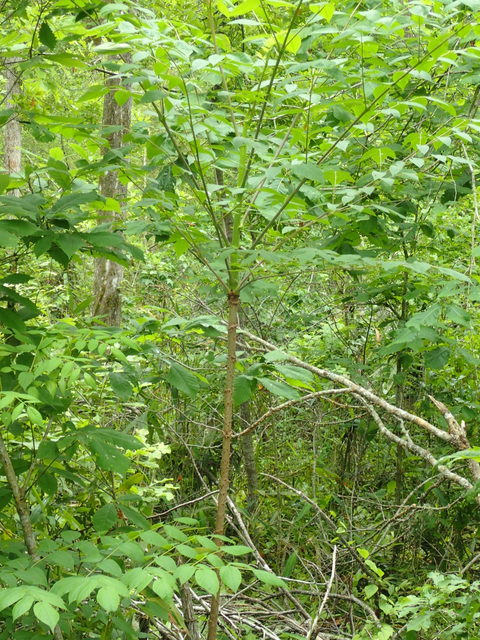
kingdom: Plantae
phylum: Tracheophyta
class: Magnoliopsida
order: Apiales
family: Araliaceae
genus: Aralia
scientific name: Aralia spinosa
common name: Hercules'-club
